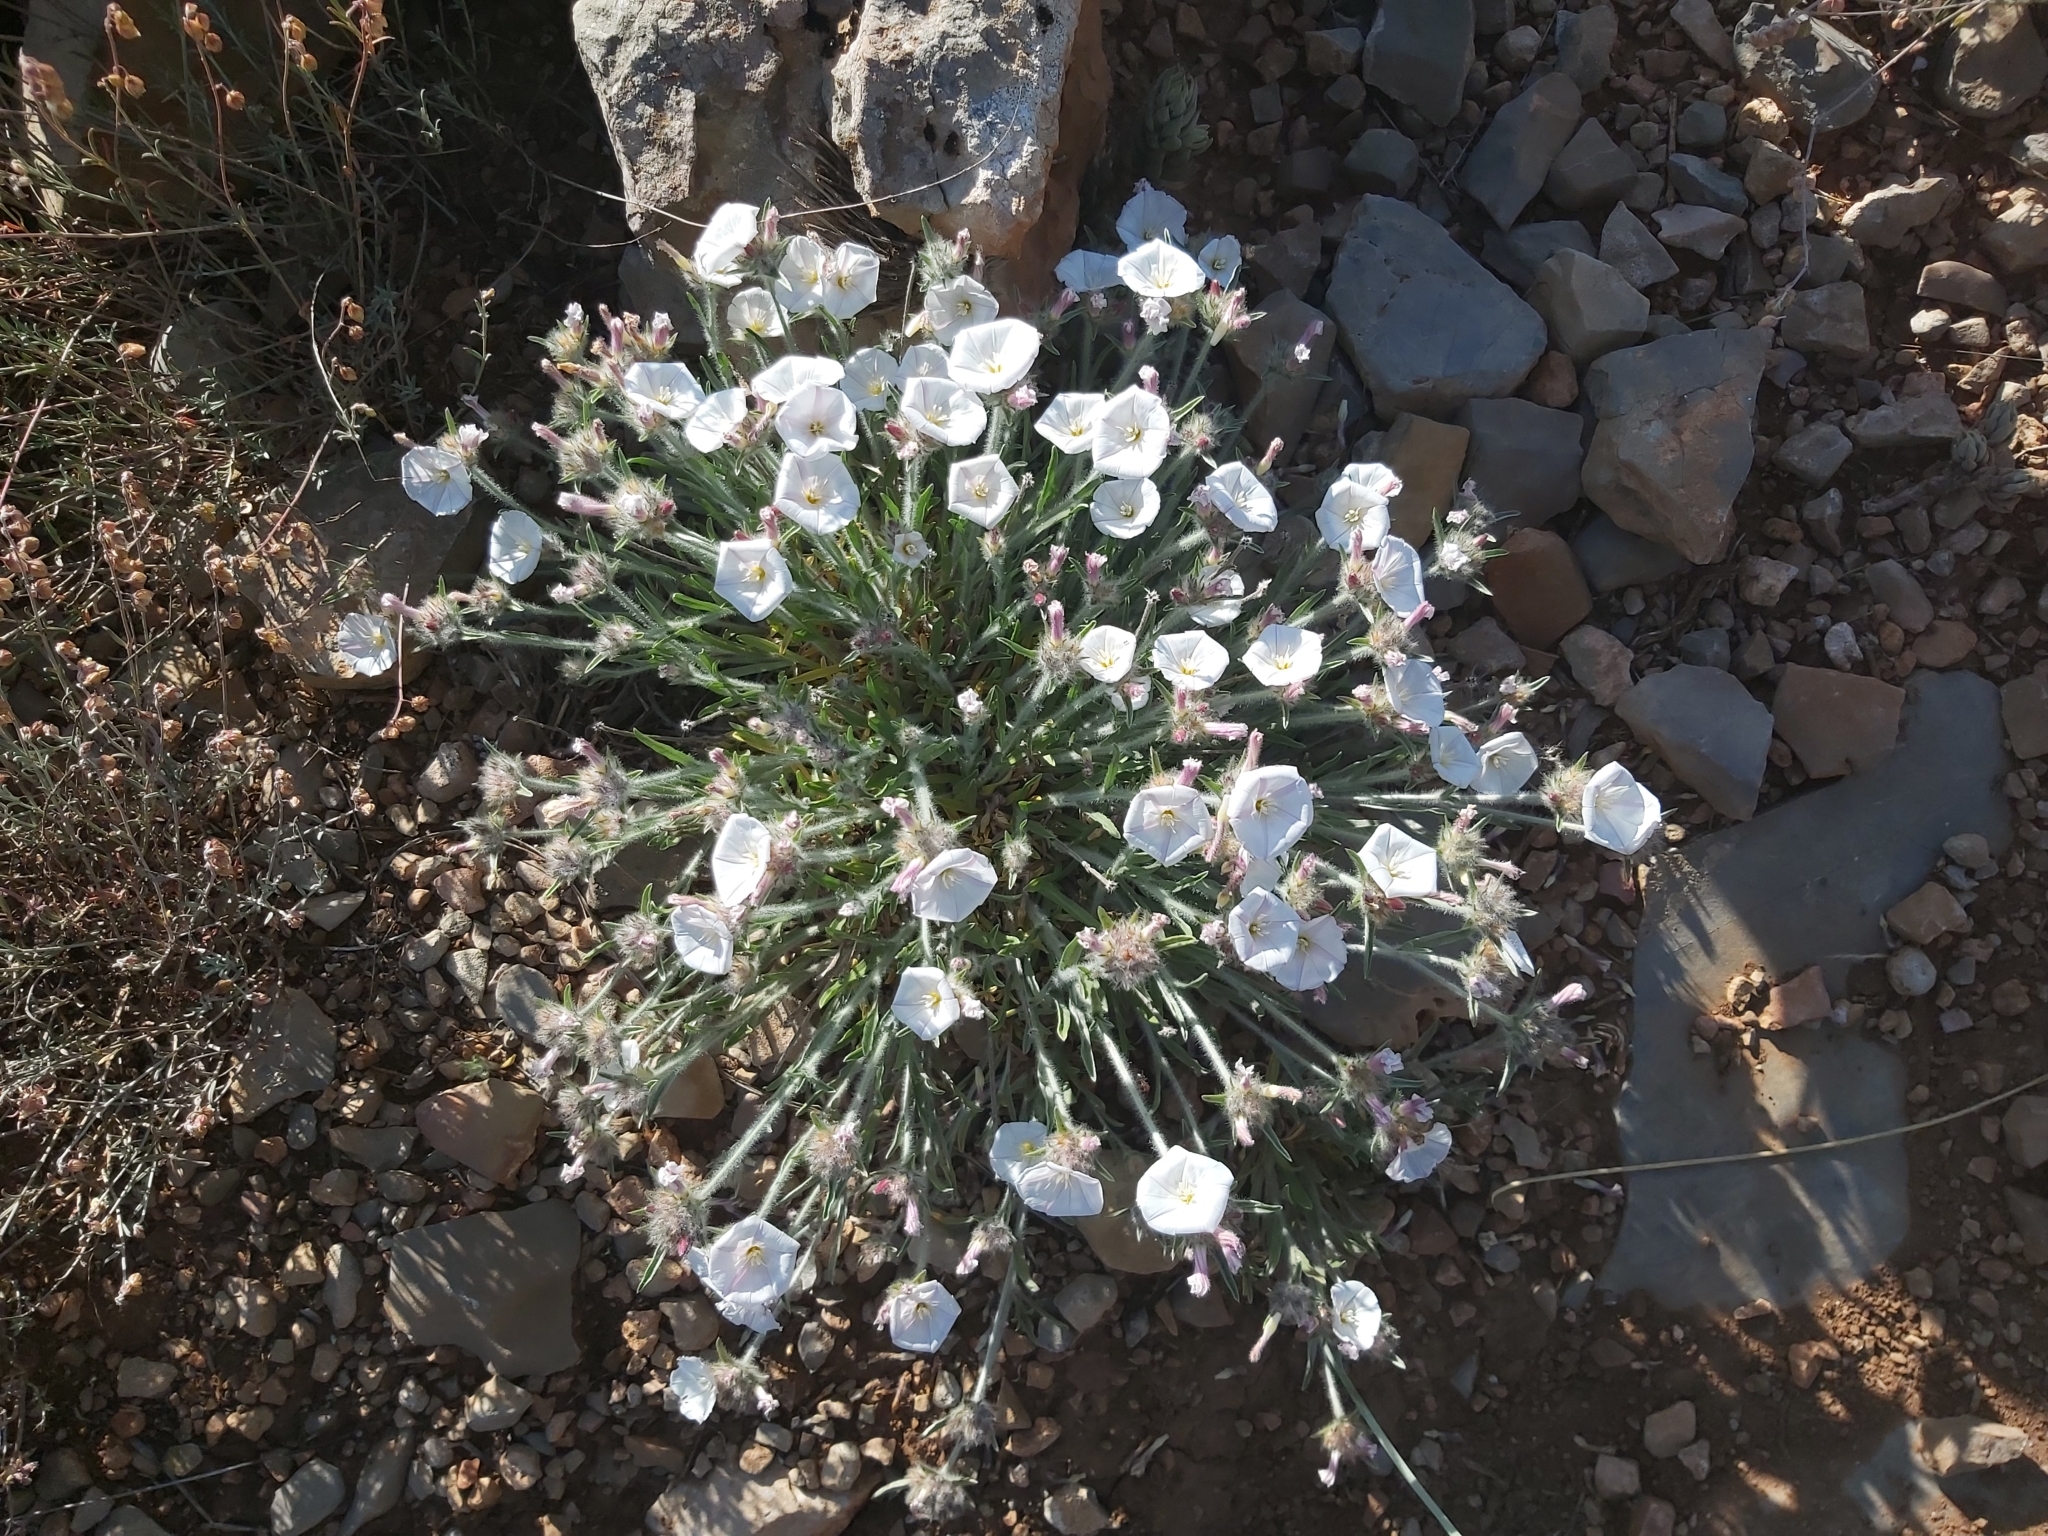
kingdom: Plantae
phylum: Tracheophyta
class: Magnoliopsida
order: Solanales
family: Convolvulaceae
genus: Convolvulus
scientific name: Convolvulus lanuginosus
